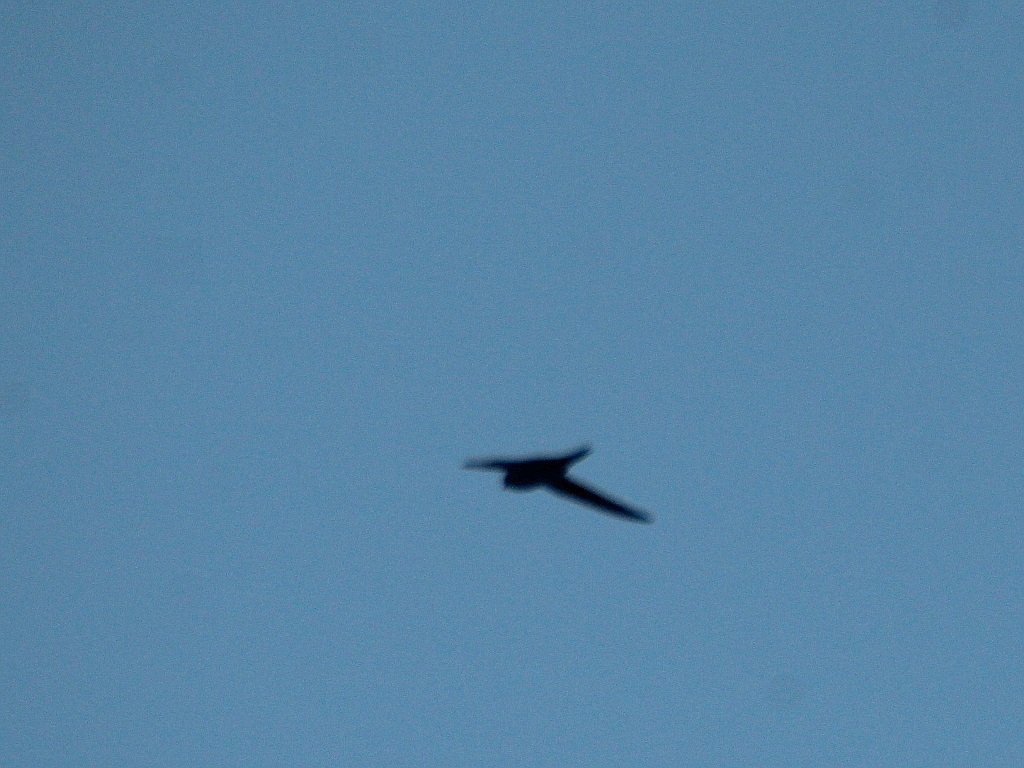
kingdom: Animalia
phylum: Chordata
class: Aves
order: Apodiformes
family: Apodidae
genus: Apus
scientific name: Apus apus
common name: Common swift
